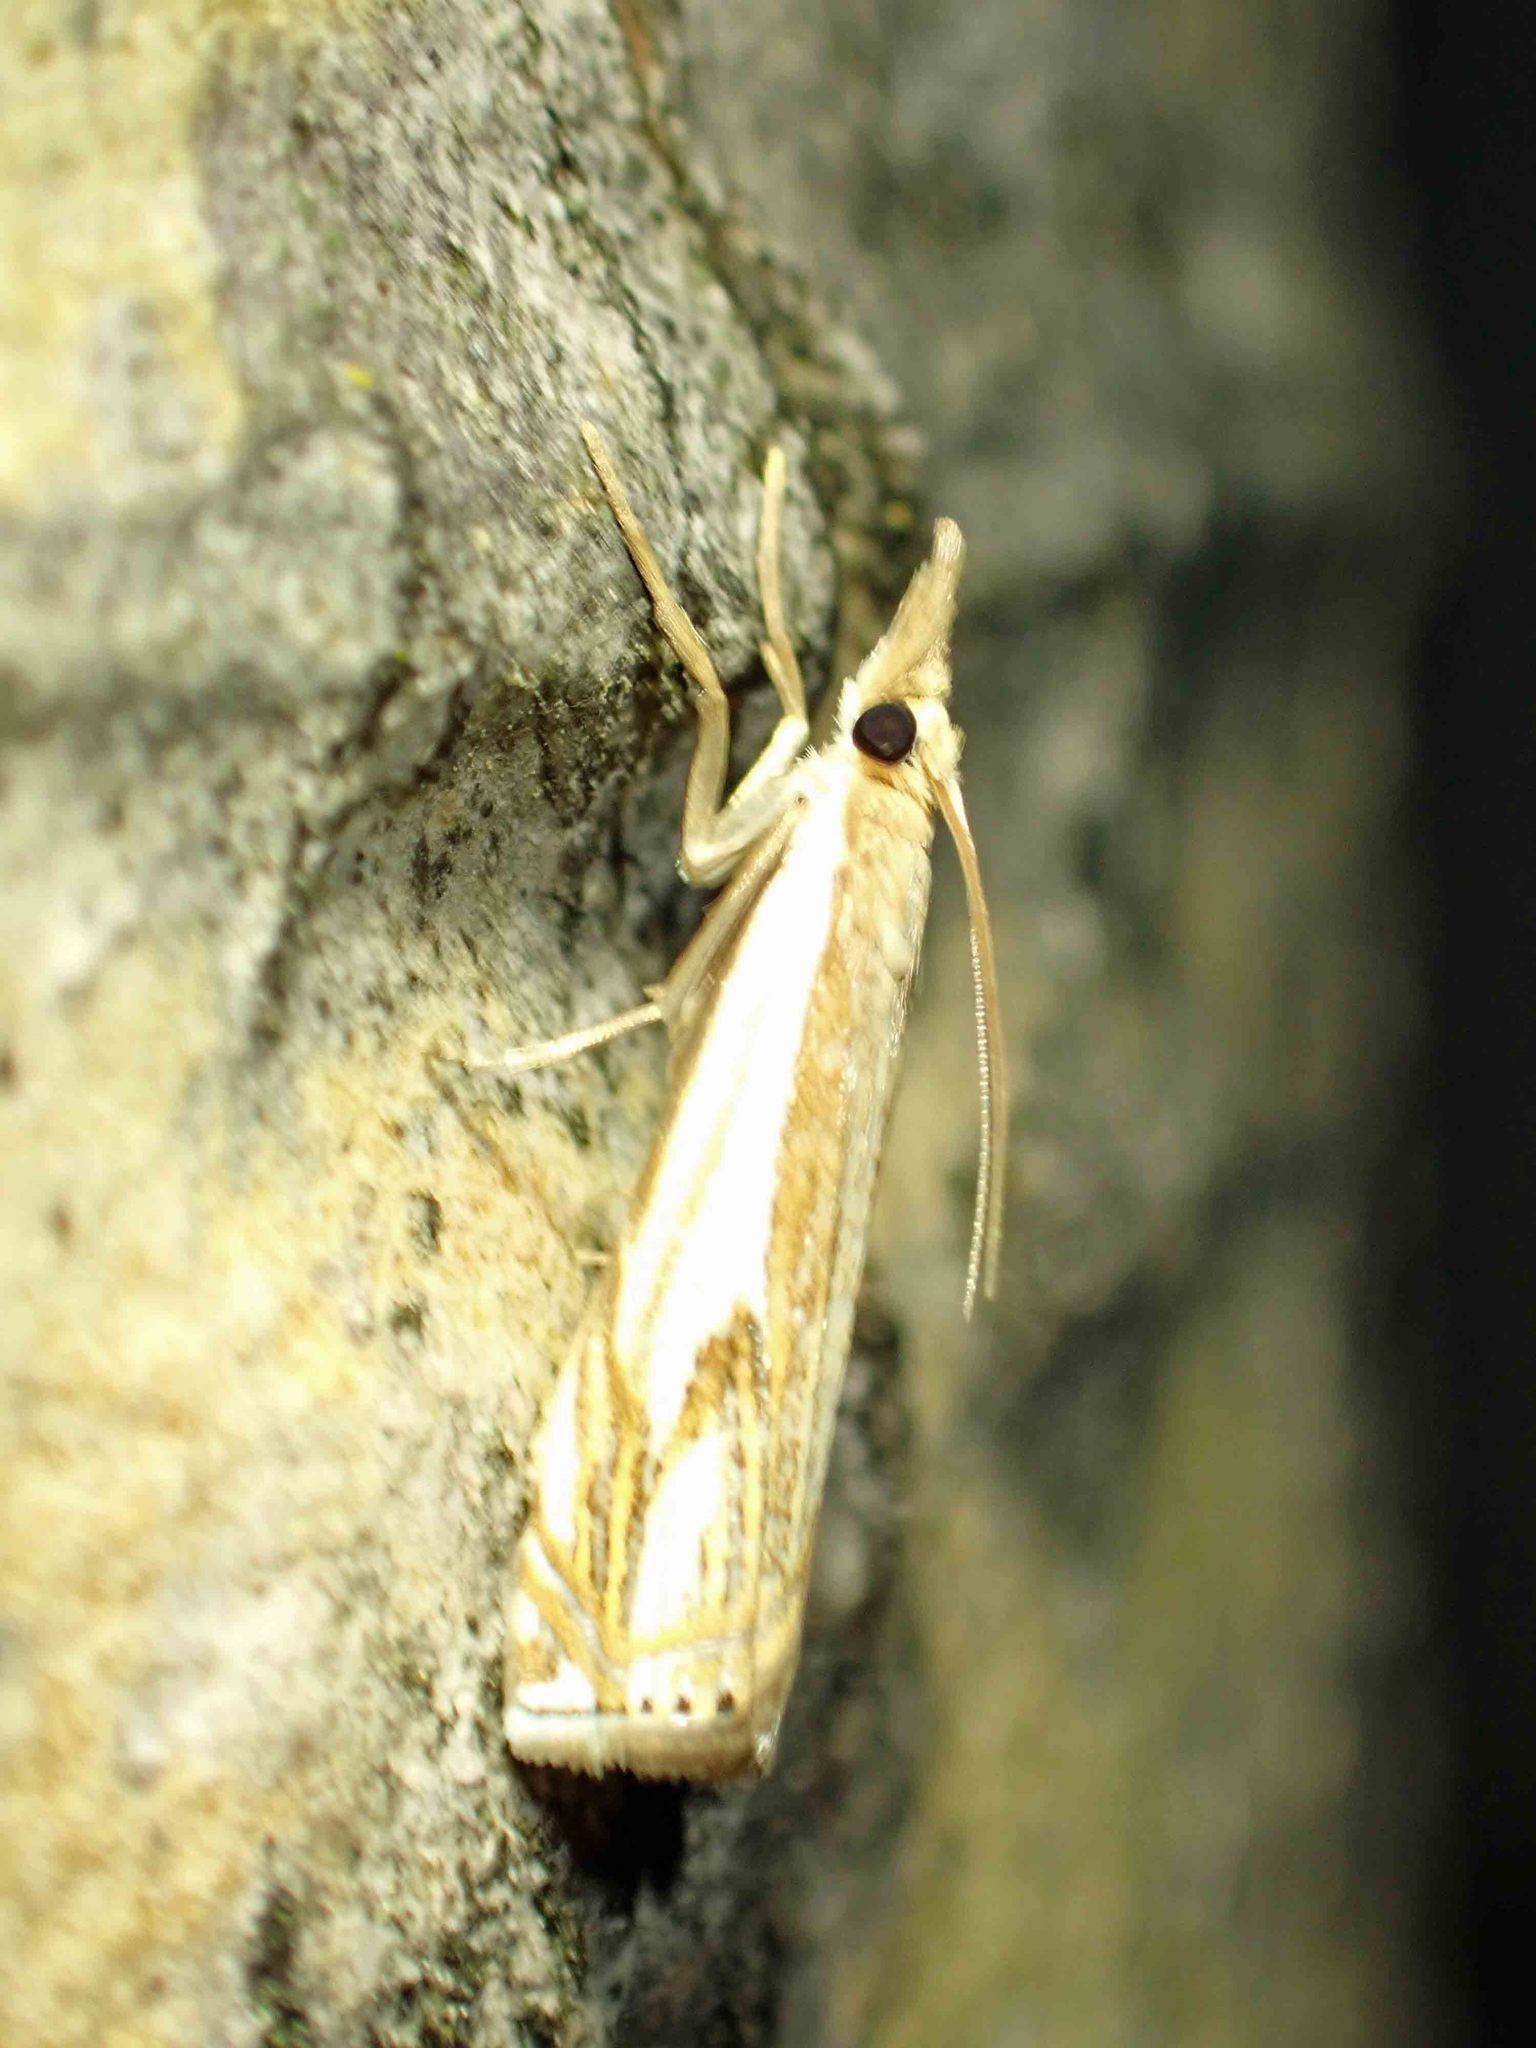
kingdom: Animalia
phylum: Arthropoda
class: Insecta
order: Lepidoptera
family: Crambidae
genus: Crambus
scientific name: Crambus agitatellus
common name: Double-banded grass-veneer
